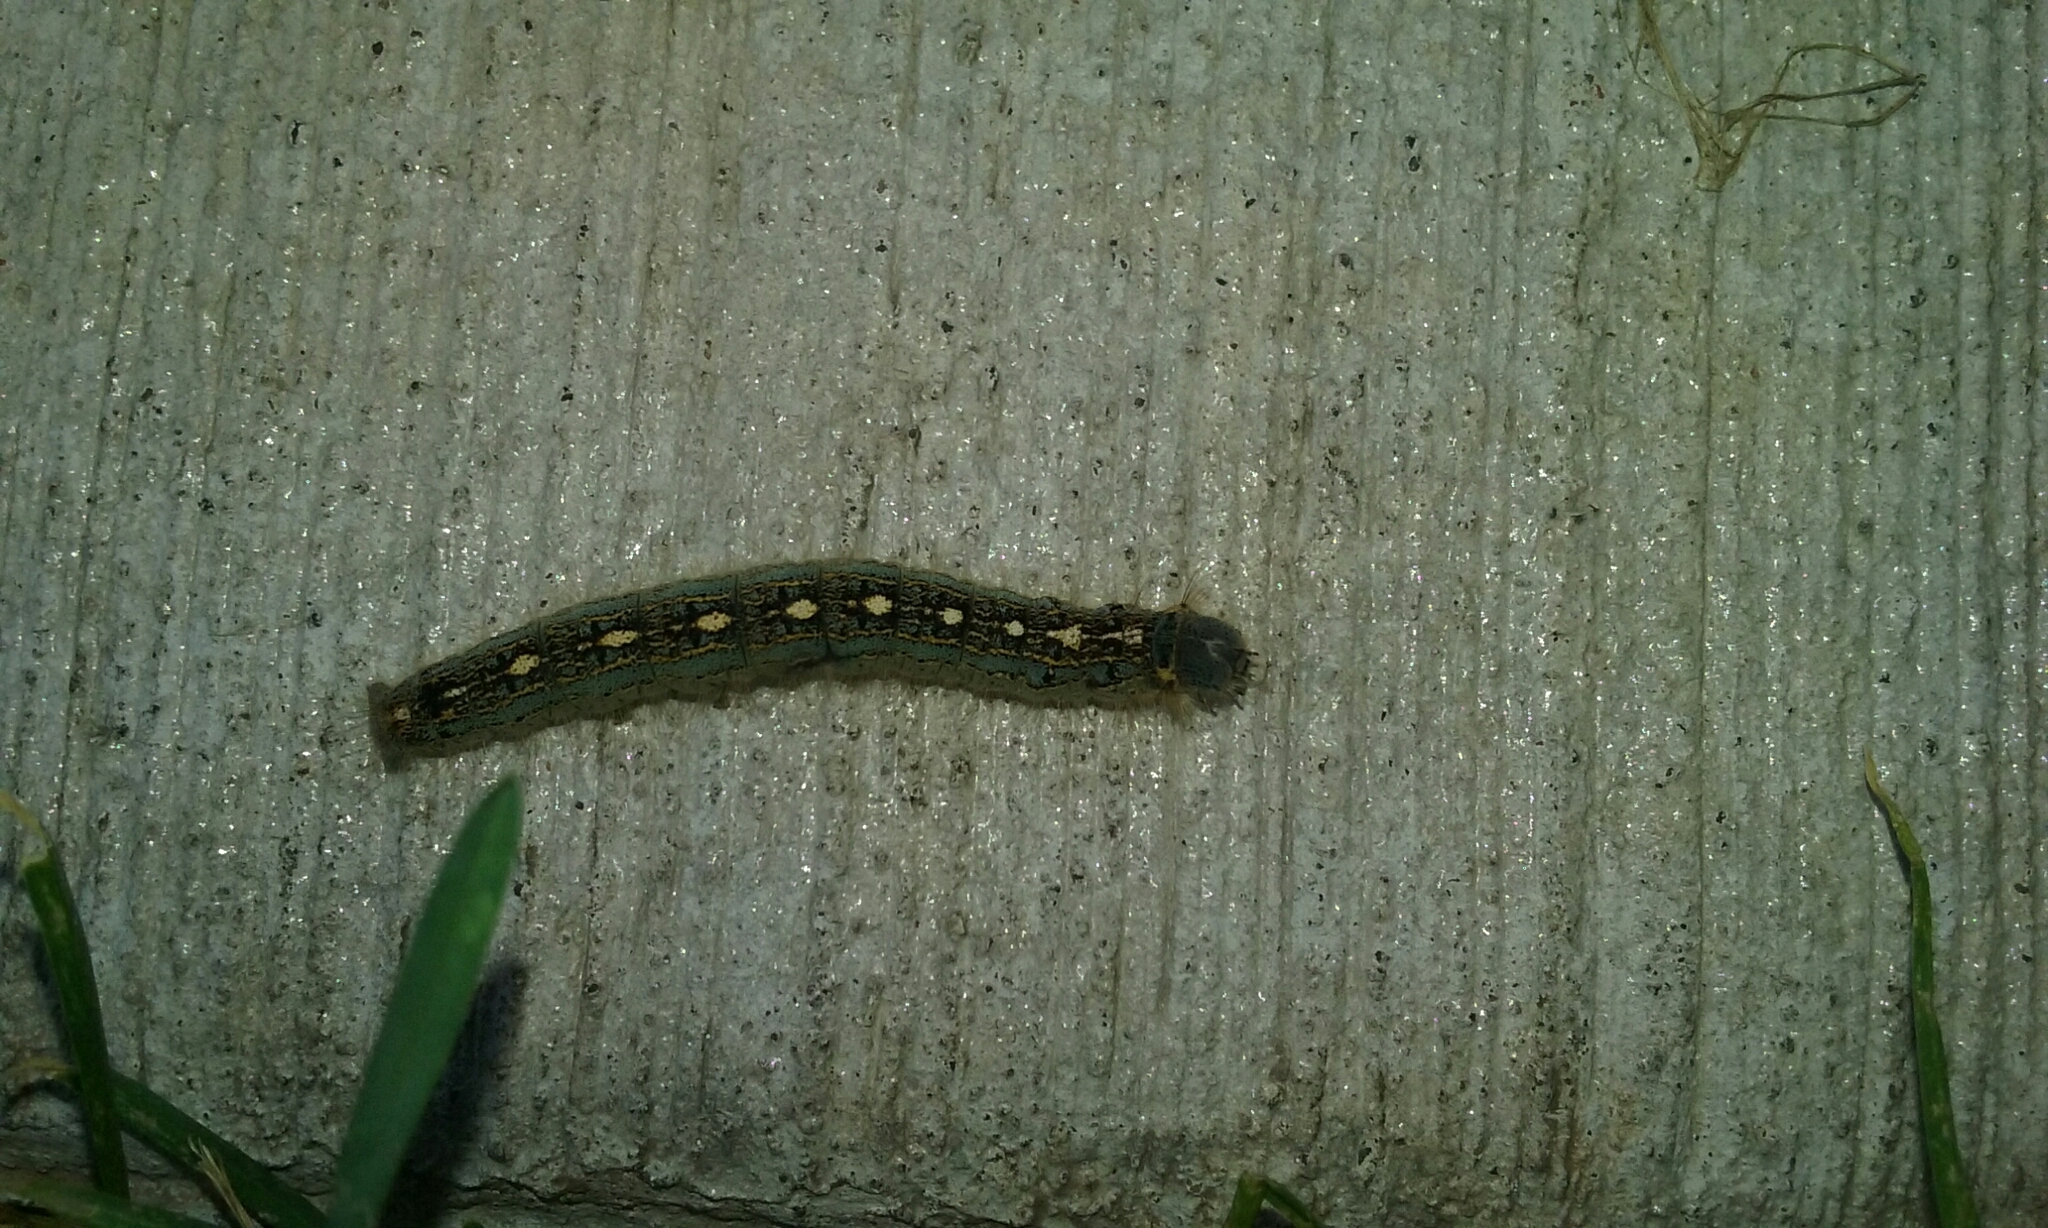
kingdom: Animalia
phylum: Arthropoda
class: Insecta
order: Lepidoptera
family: Lasiocampidae
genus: Malacosoma
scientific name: Malacosoma disstria
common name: Forest tent caterpillar
